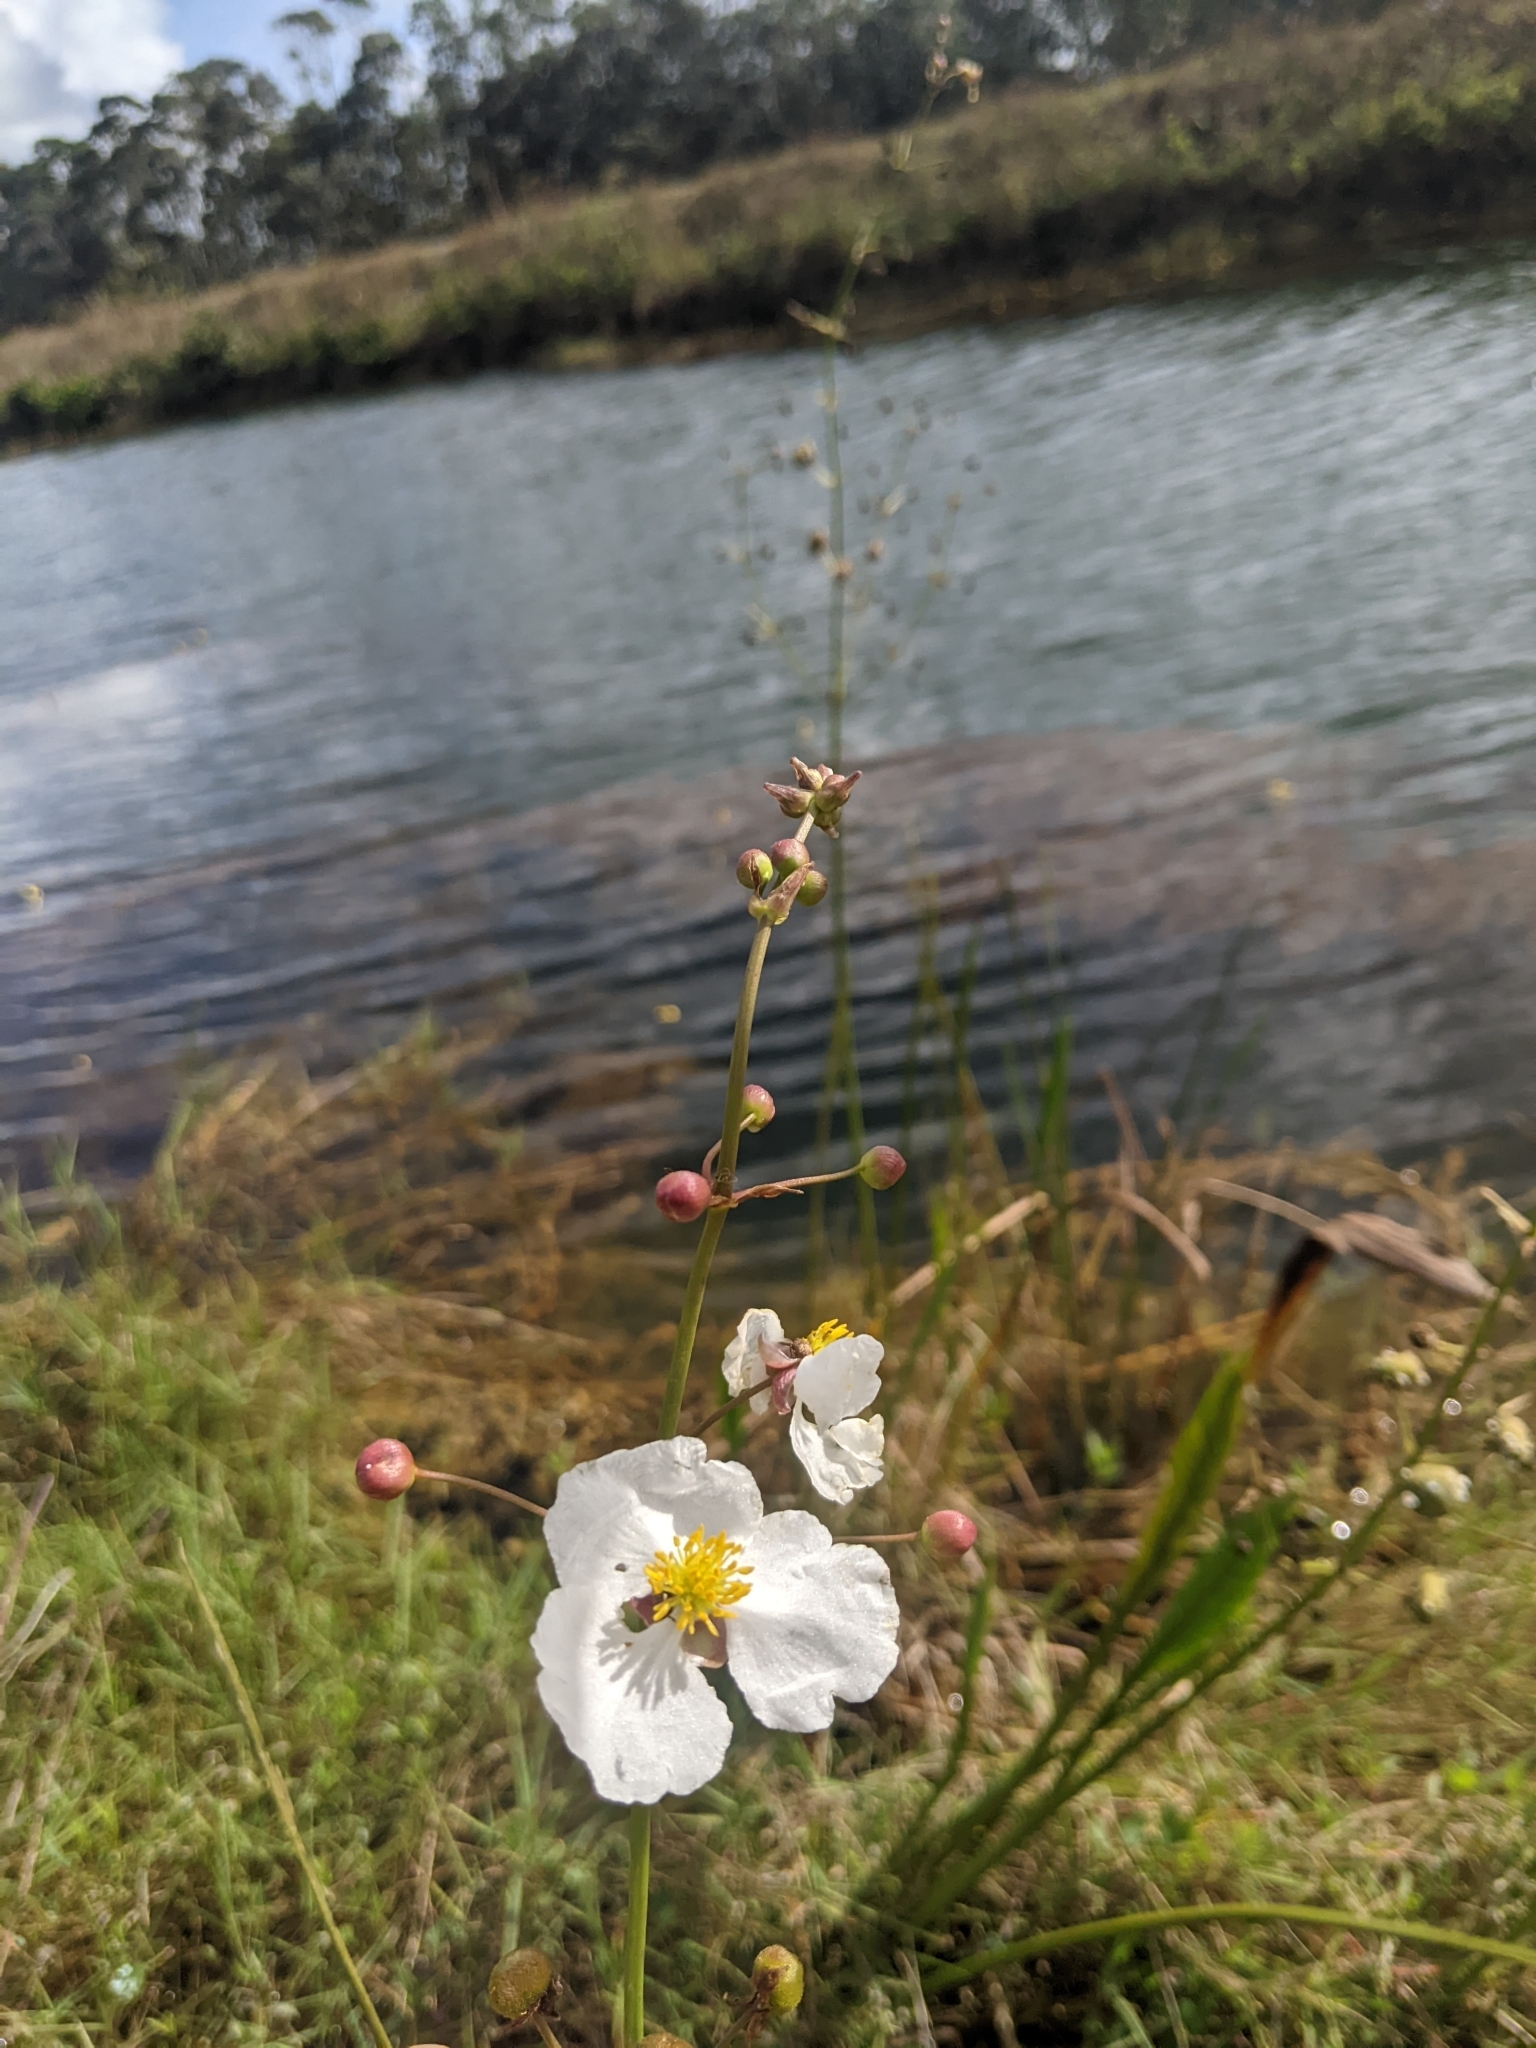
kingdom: Plantae
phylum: Tracheophyta
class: Liliopsida
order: Alismatales
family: Alismataceae
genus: Sagittaria
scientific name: Sagittaria lancifolia
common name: Lance-leaf arrowhead
